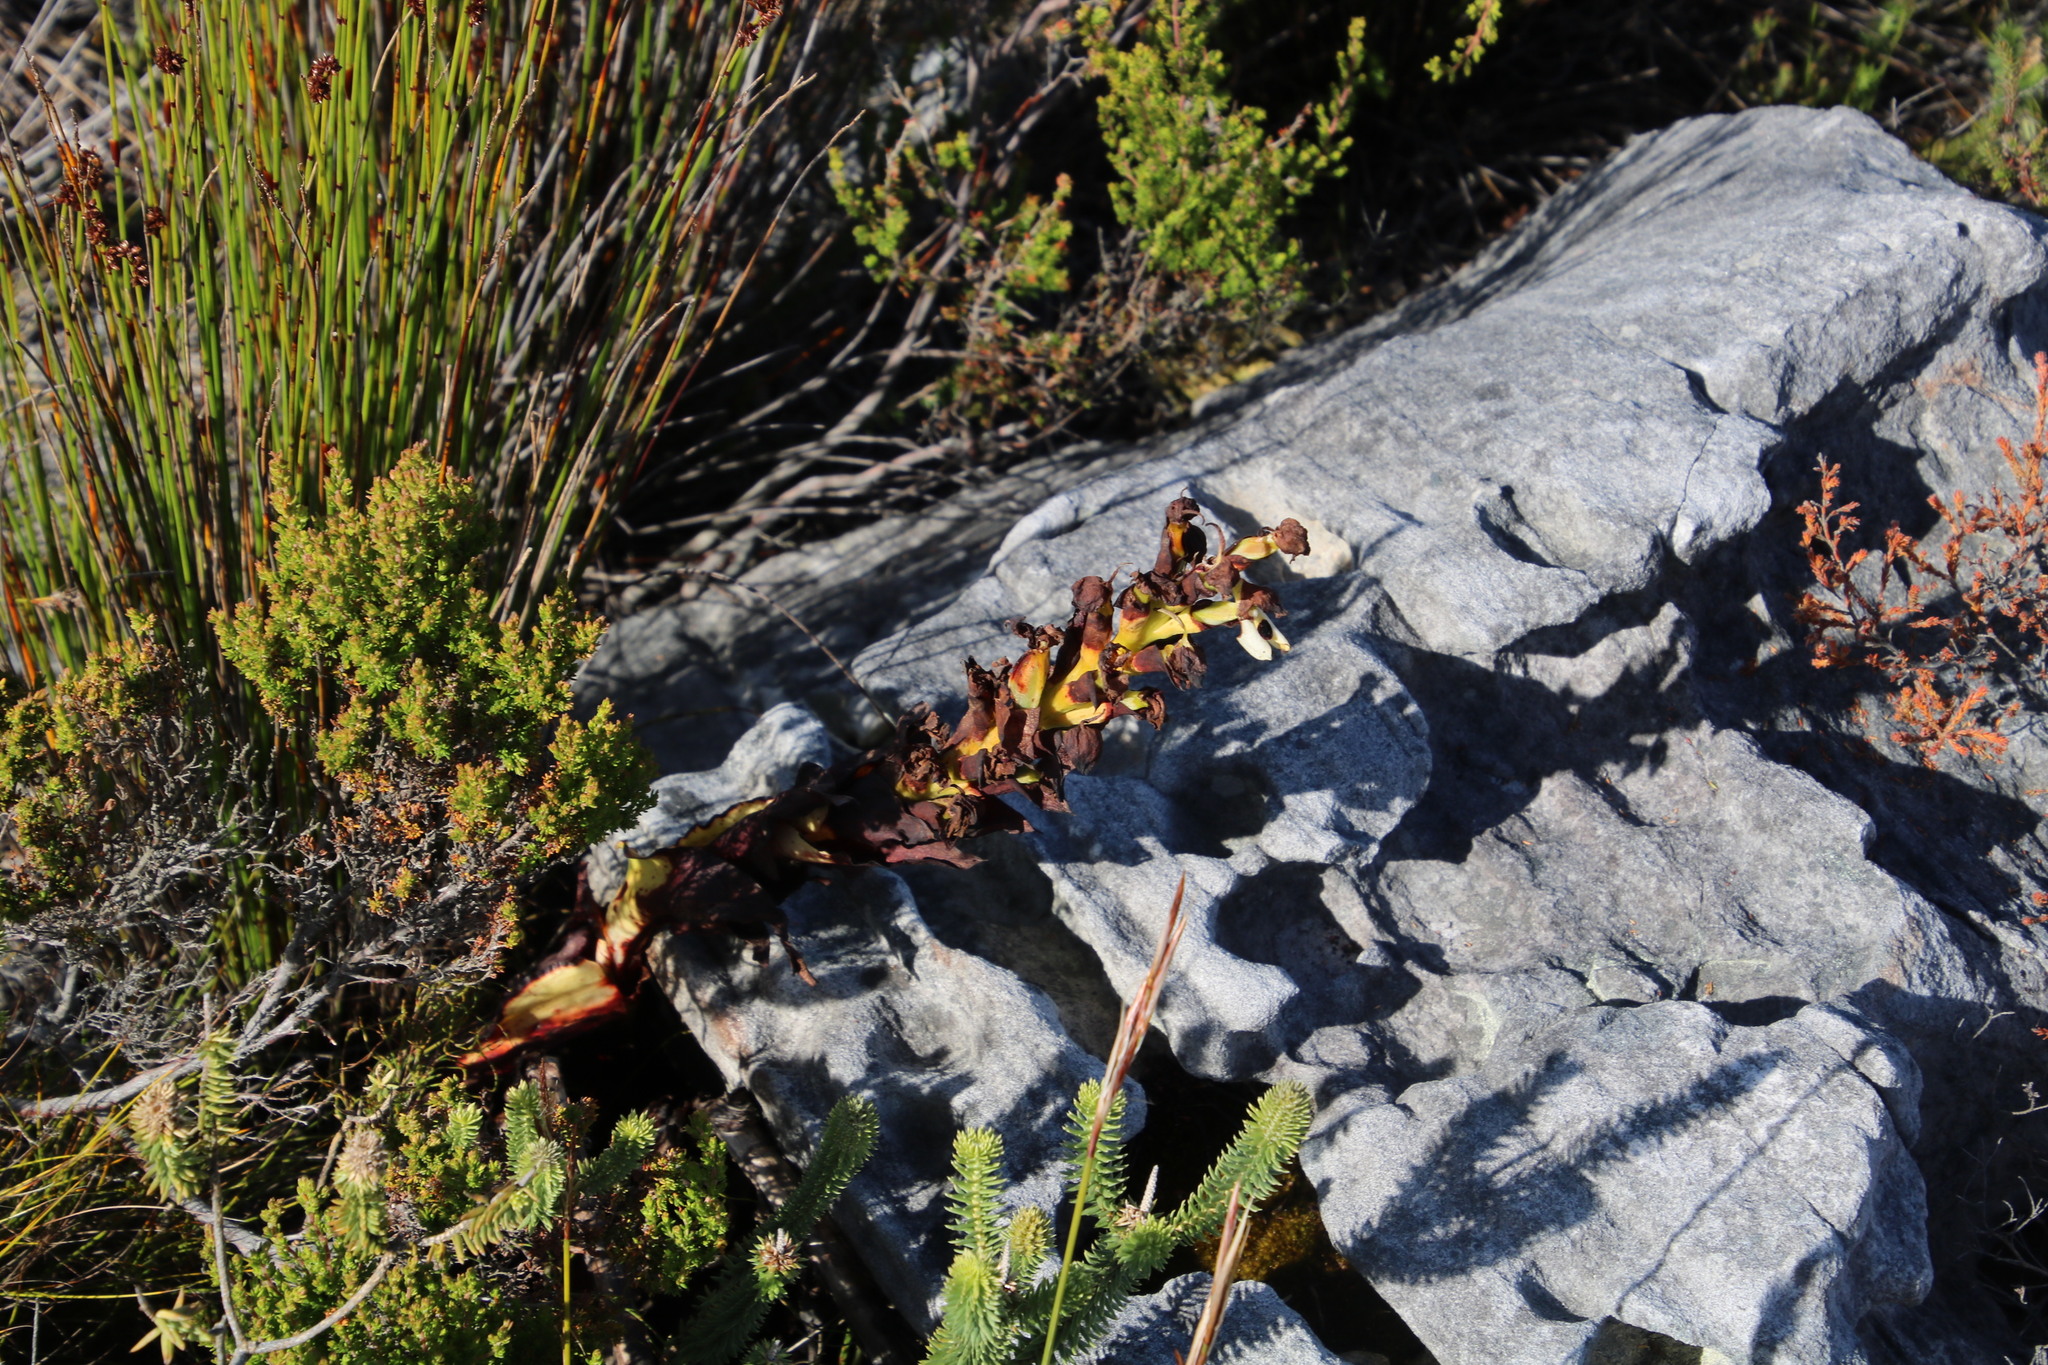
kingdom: Plantae
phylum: Tracheophyta
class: Liliopsida
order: Asparagales
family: Orchidaceae
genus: Disa
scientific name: Disa cornuta
